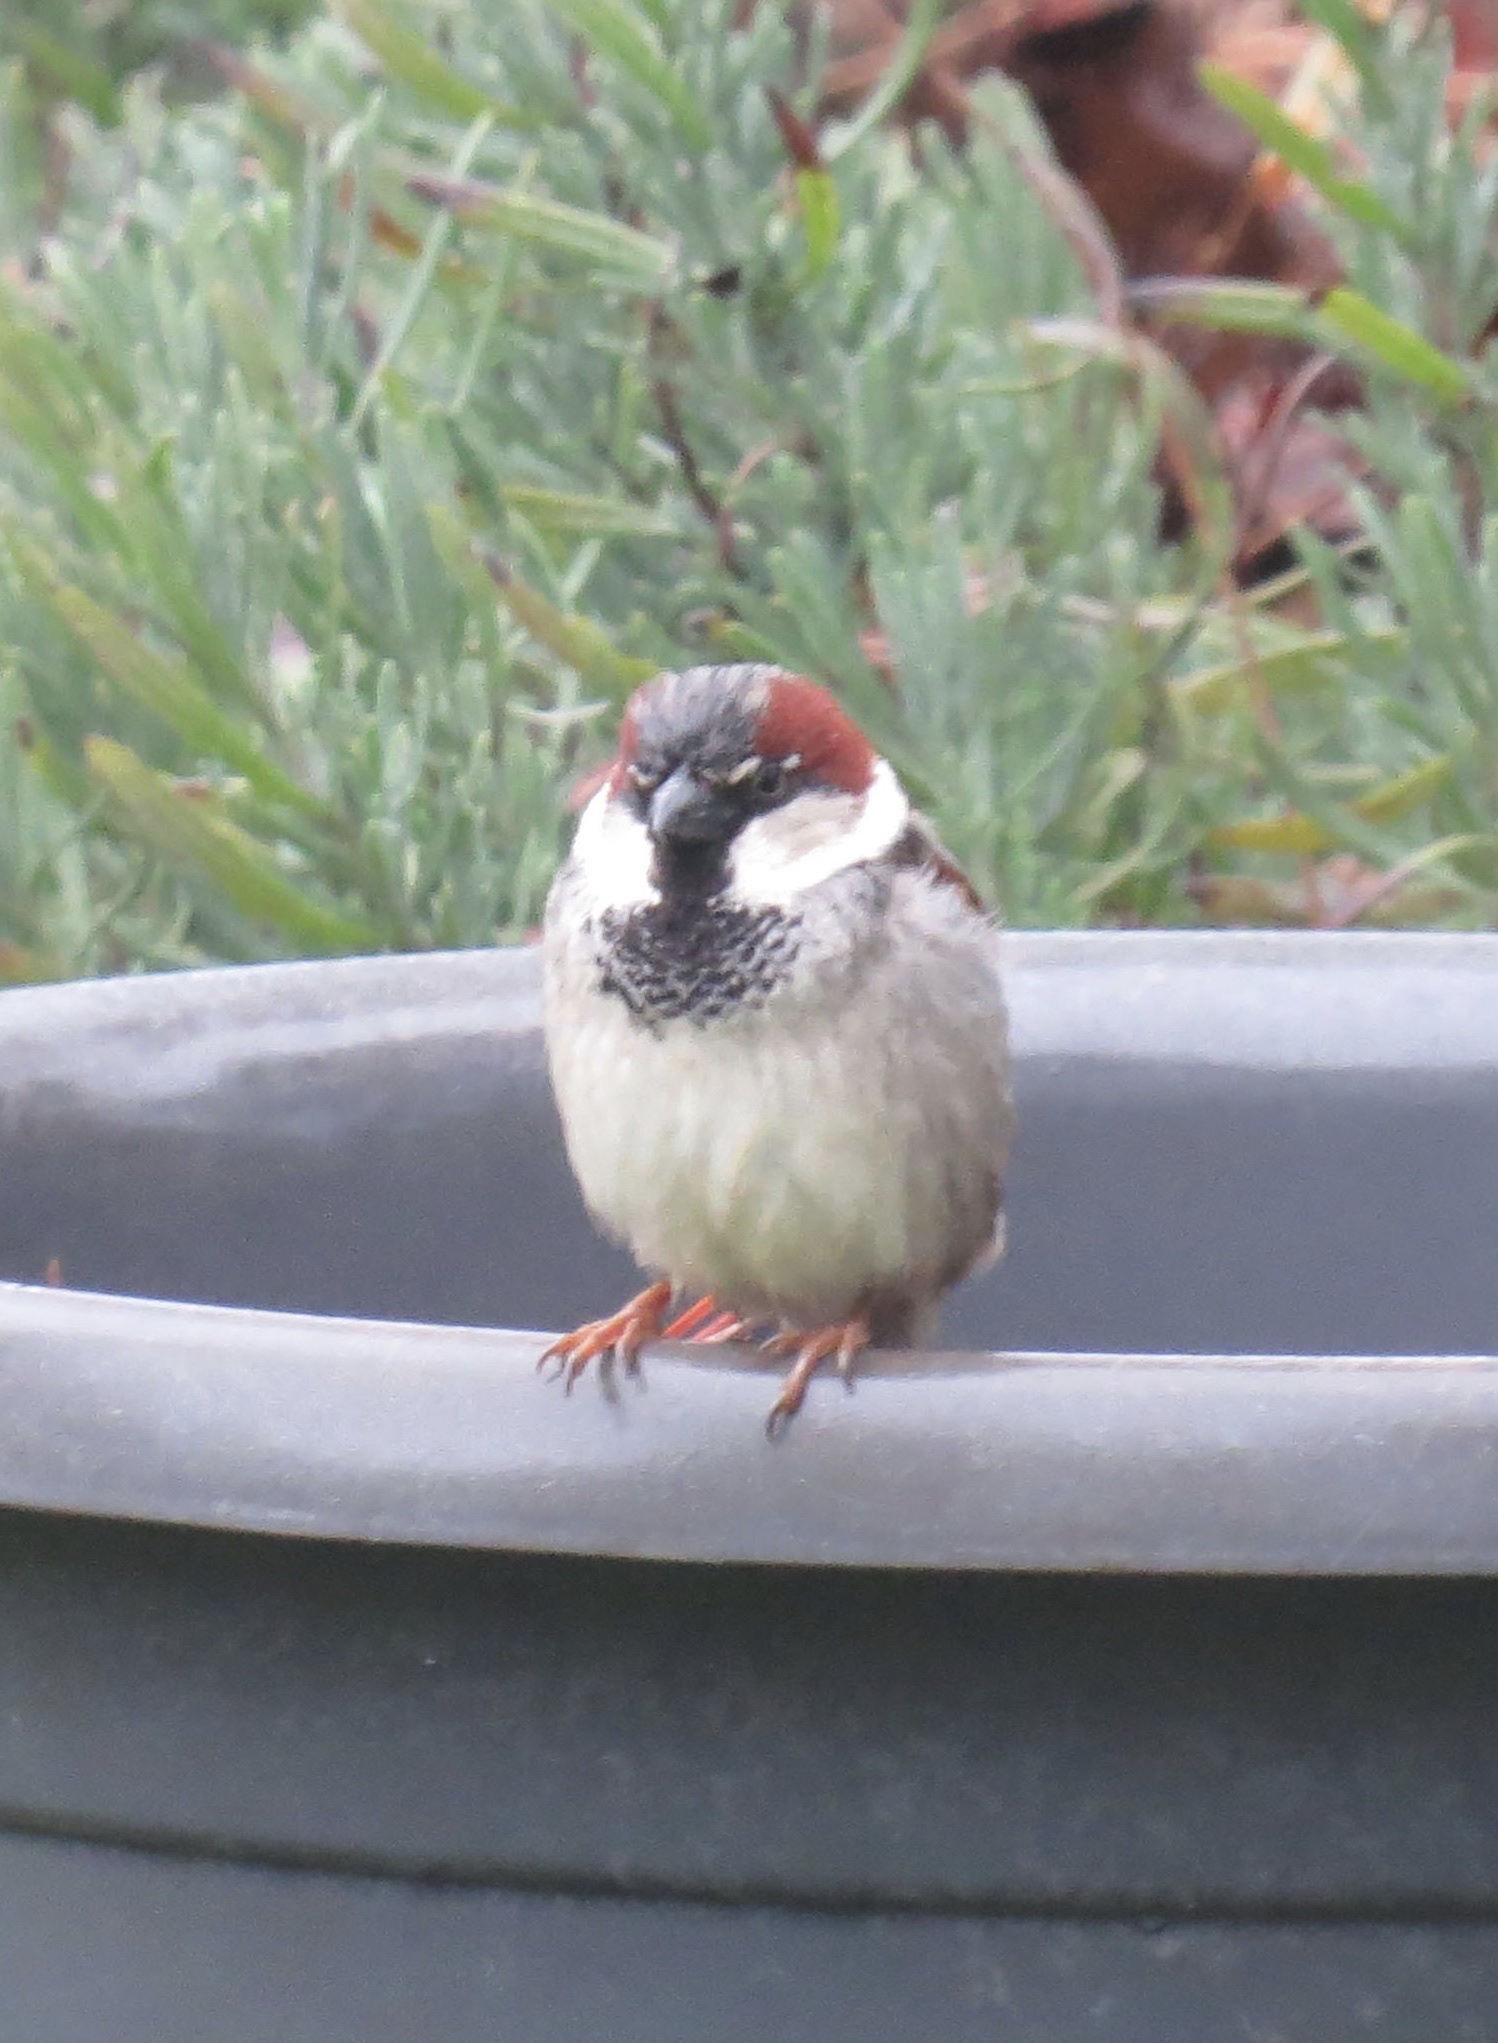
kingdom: Animalia
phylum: Chordata
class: Aves
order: Passeriformes
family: Passeridae
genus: Passer
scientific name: Passer domesticus
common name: House sparrow
